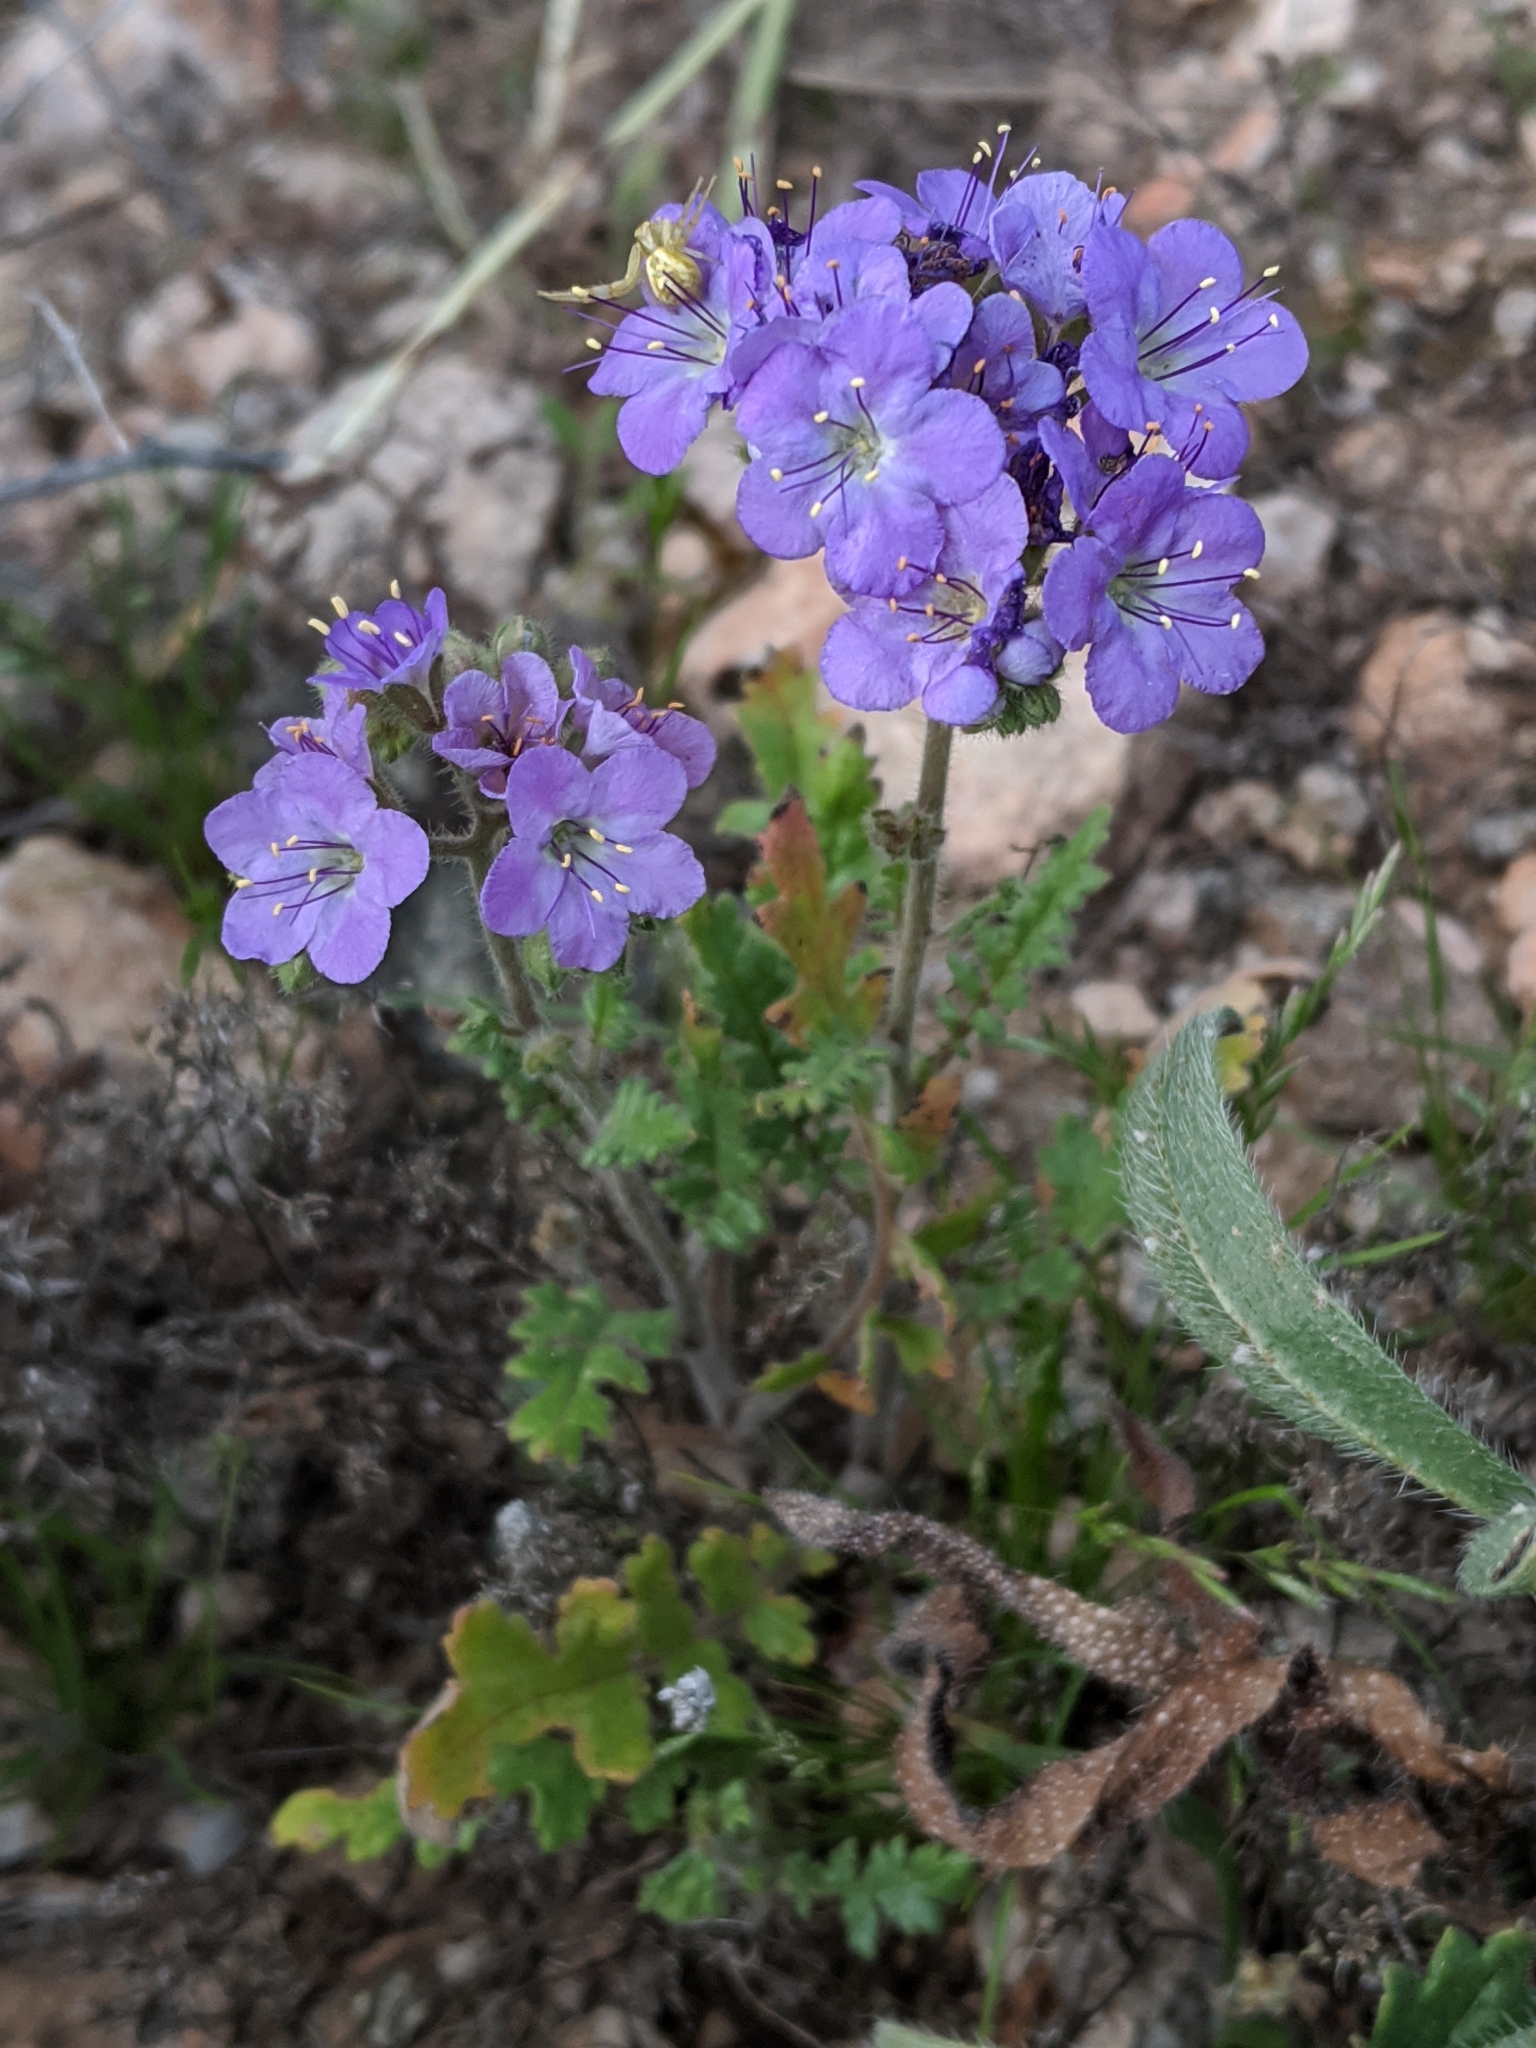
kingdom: Plantae
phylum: Tracheophyta
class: Magnoliopsida
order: Boraginales
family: Hydrophyllaceae
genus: Phacelia
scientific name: Phacelia crenulata
